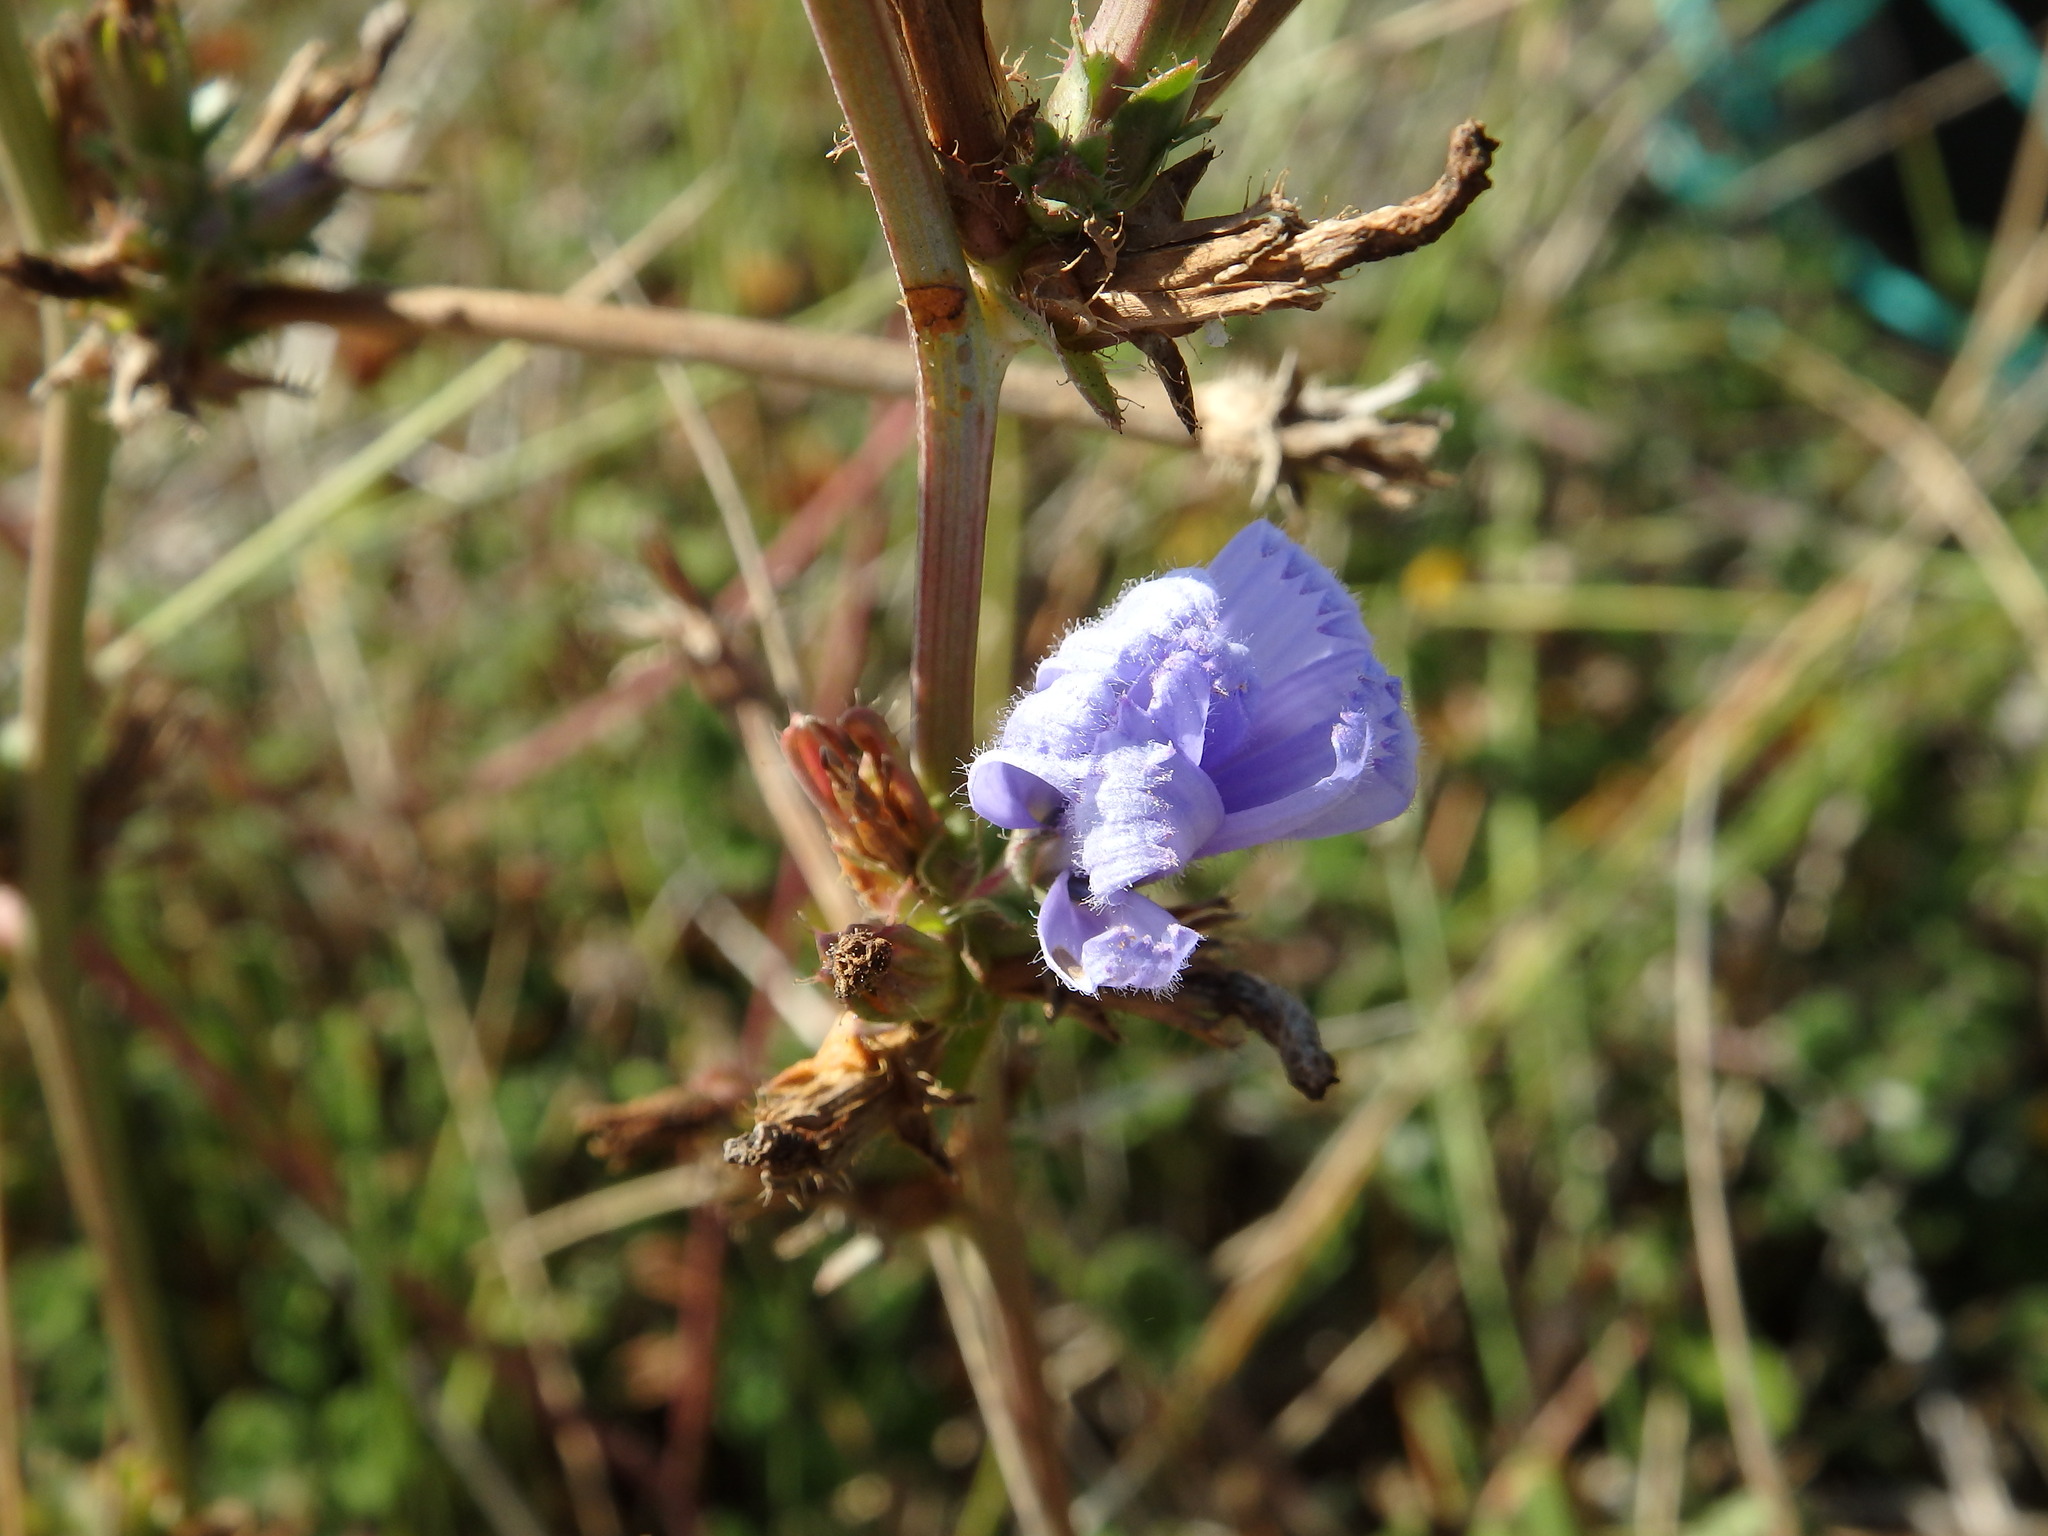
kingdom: Plantae
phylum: Tracheophyta
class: Magnoliopsida
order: Asterales
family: Asteraceae
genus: Cichorium
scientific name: Cichorium intybus
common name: Chicory
